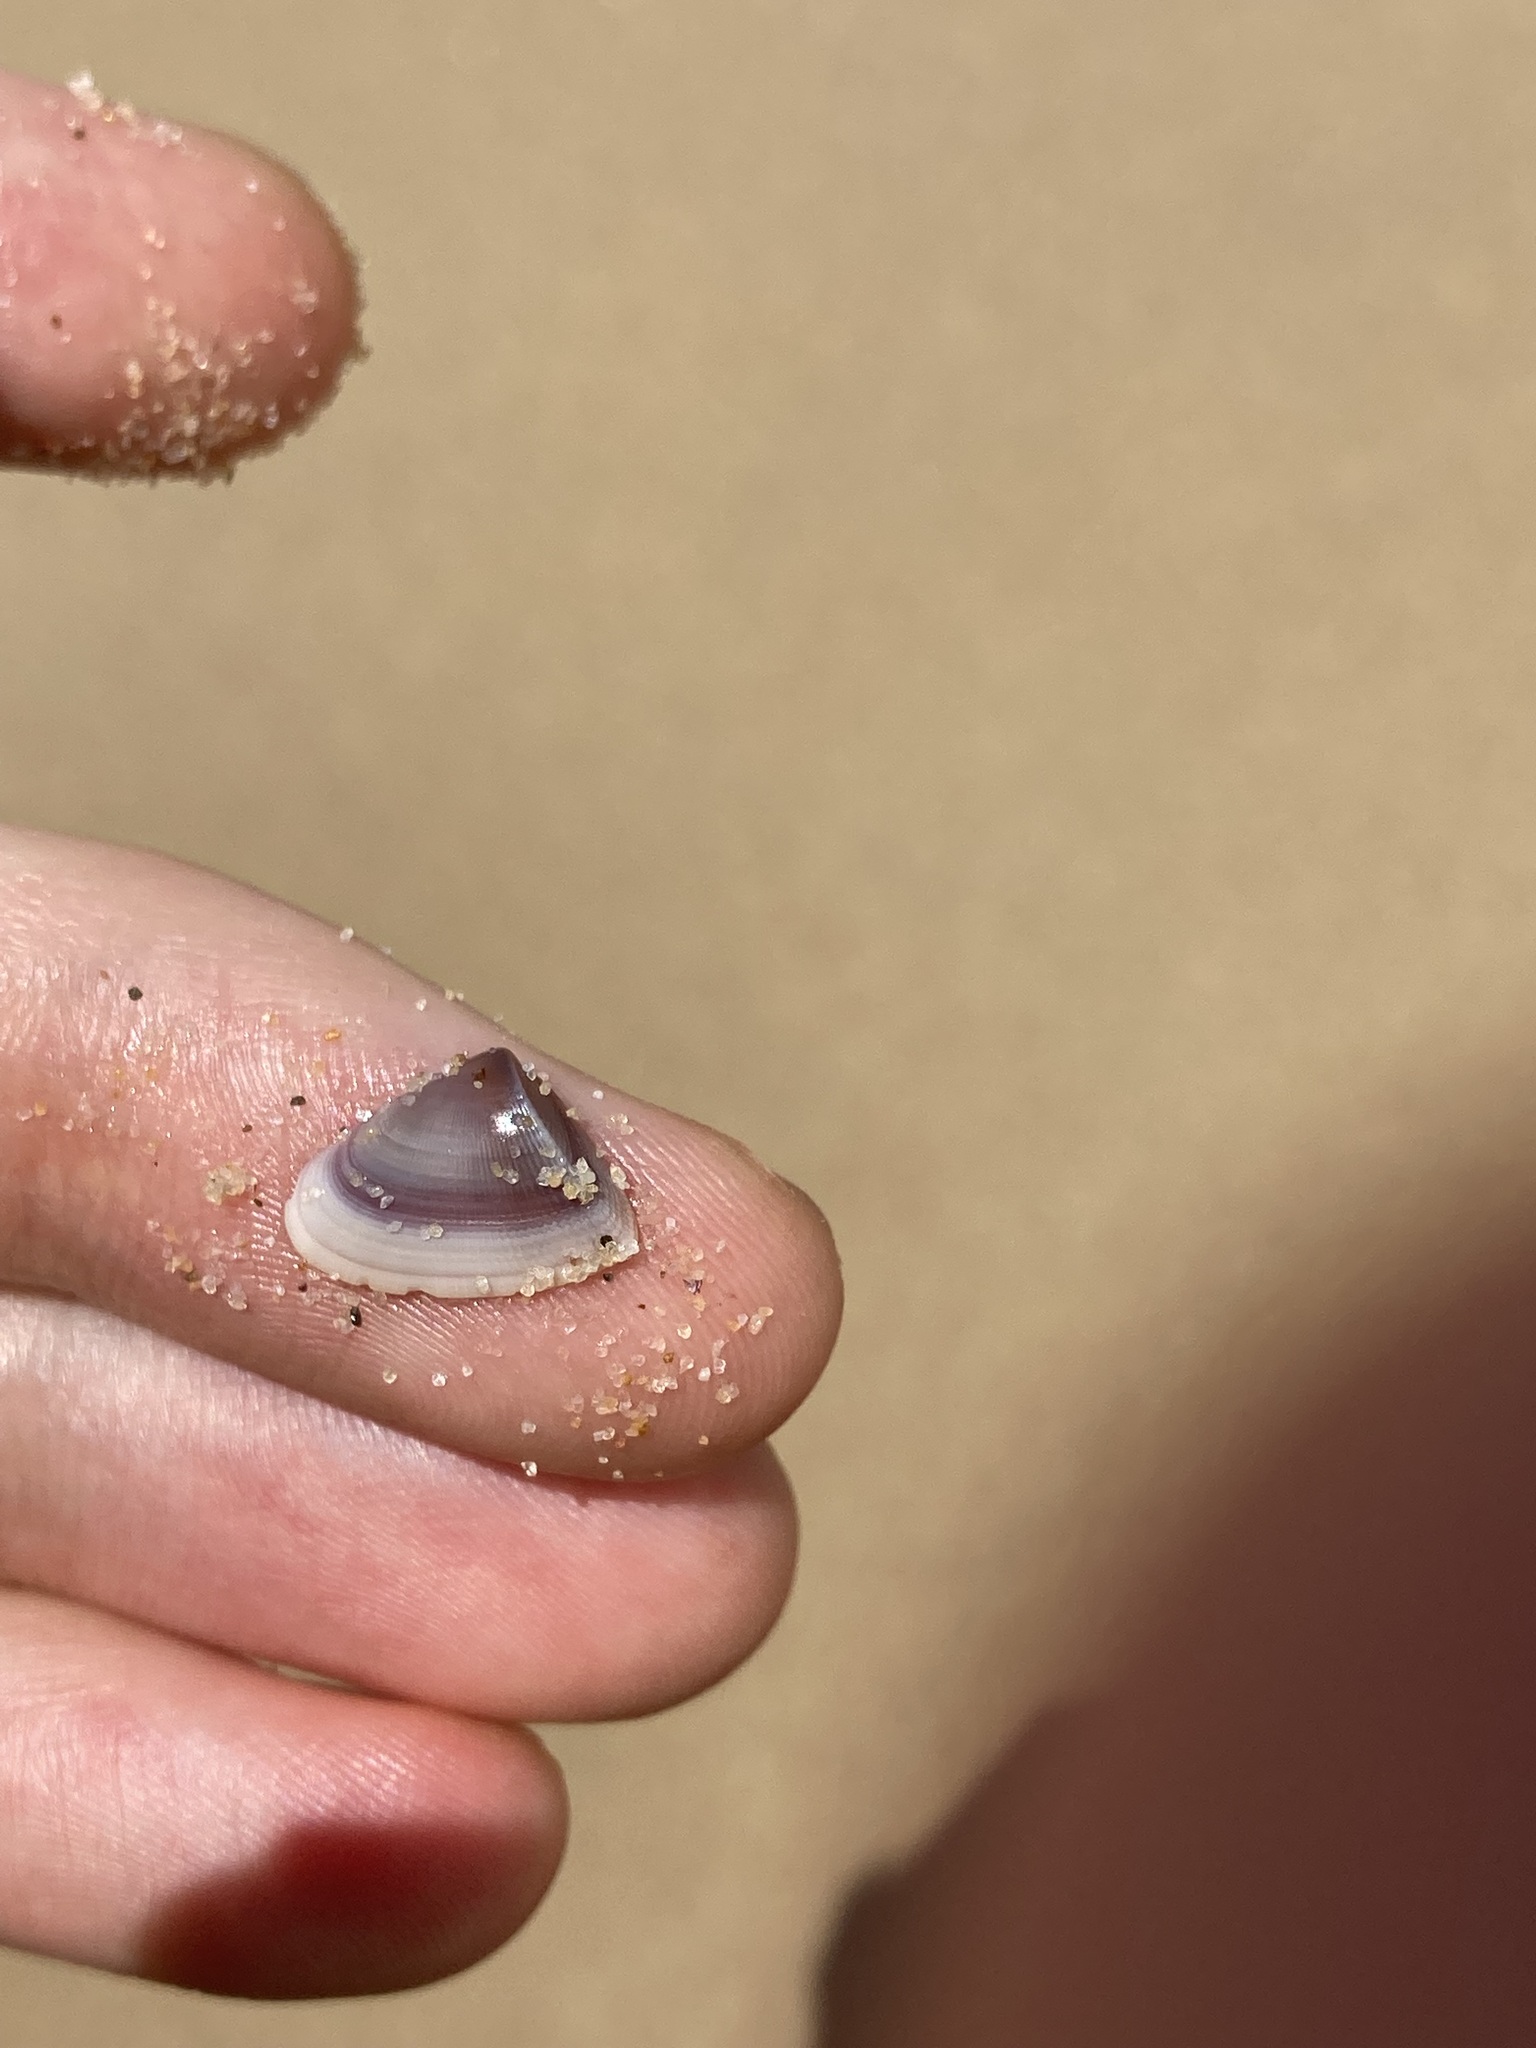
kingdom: Animalia
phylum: Mollusca
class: Bivalvia
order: Cardiida
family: Donacidae
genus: Donax
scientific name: Donax brazieri
